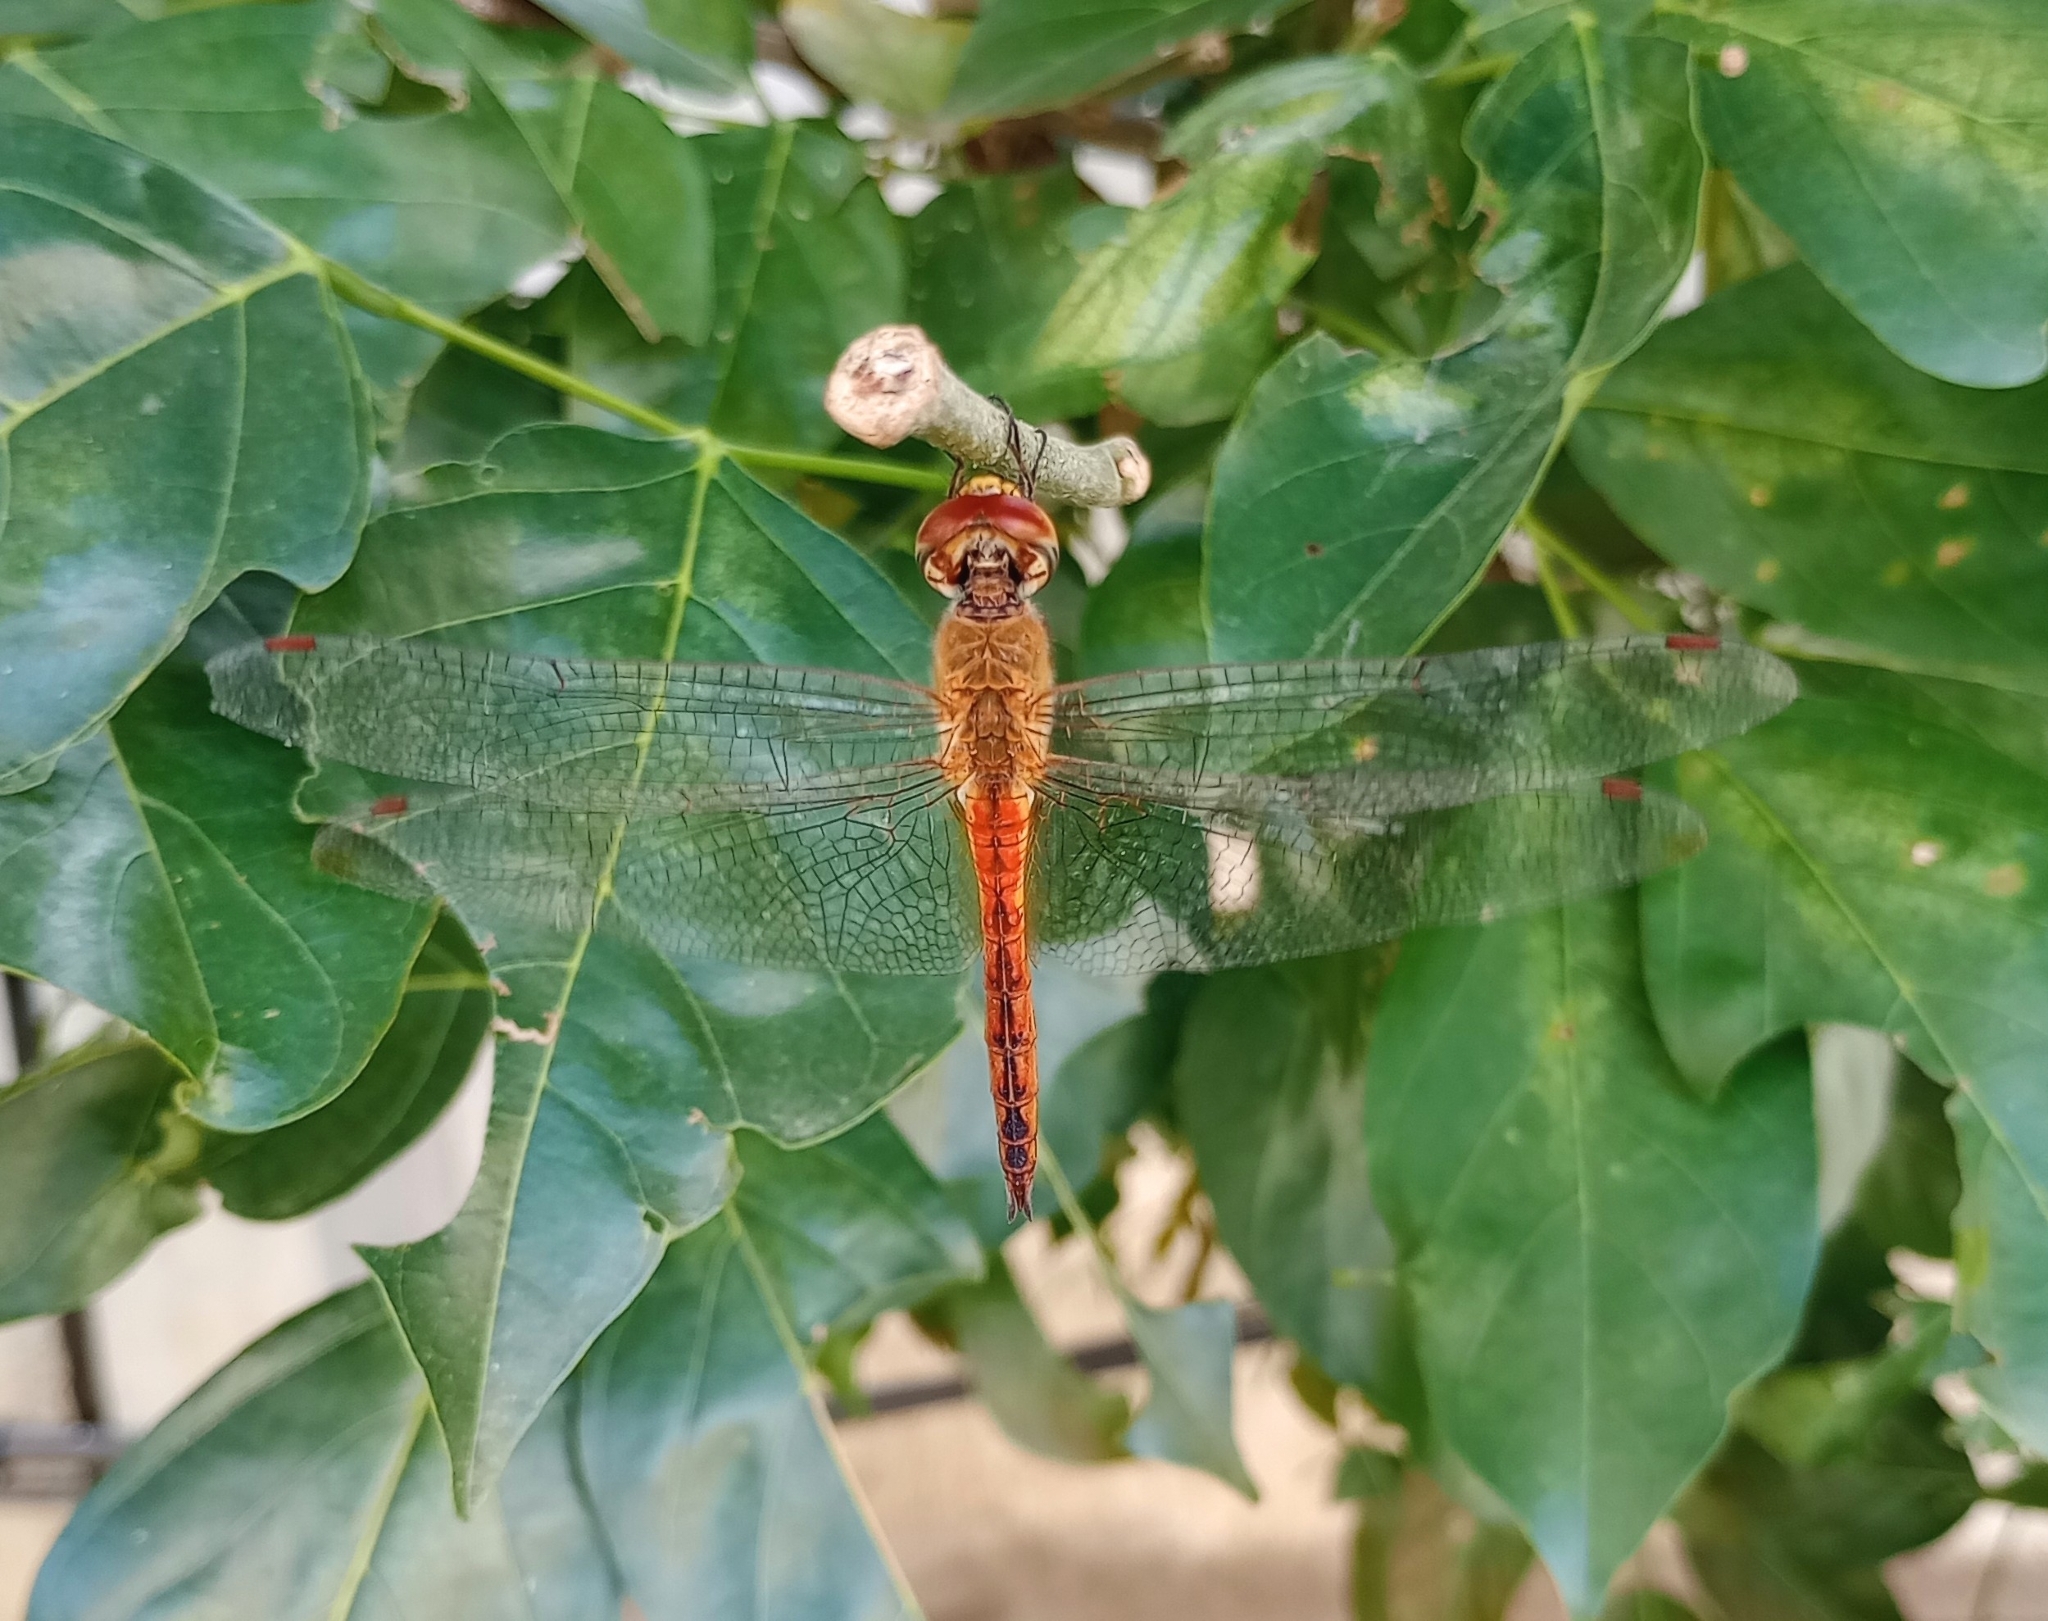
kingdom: Animalia
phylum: Arthropoda
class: Insecta
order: Odonata
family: Libellulidae
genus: Pantala
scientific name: Pantala flavescens
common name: Wandering glider
